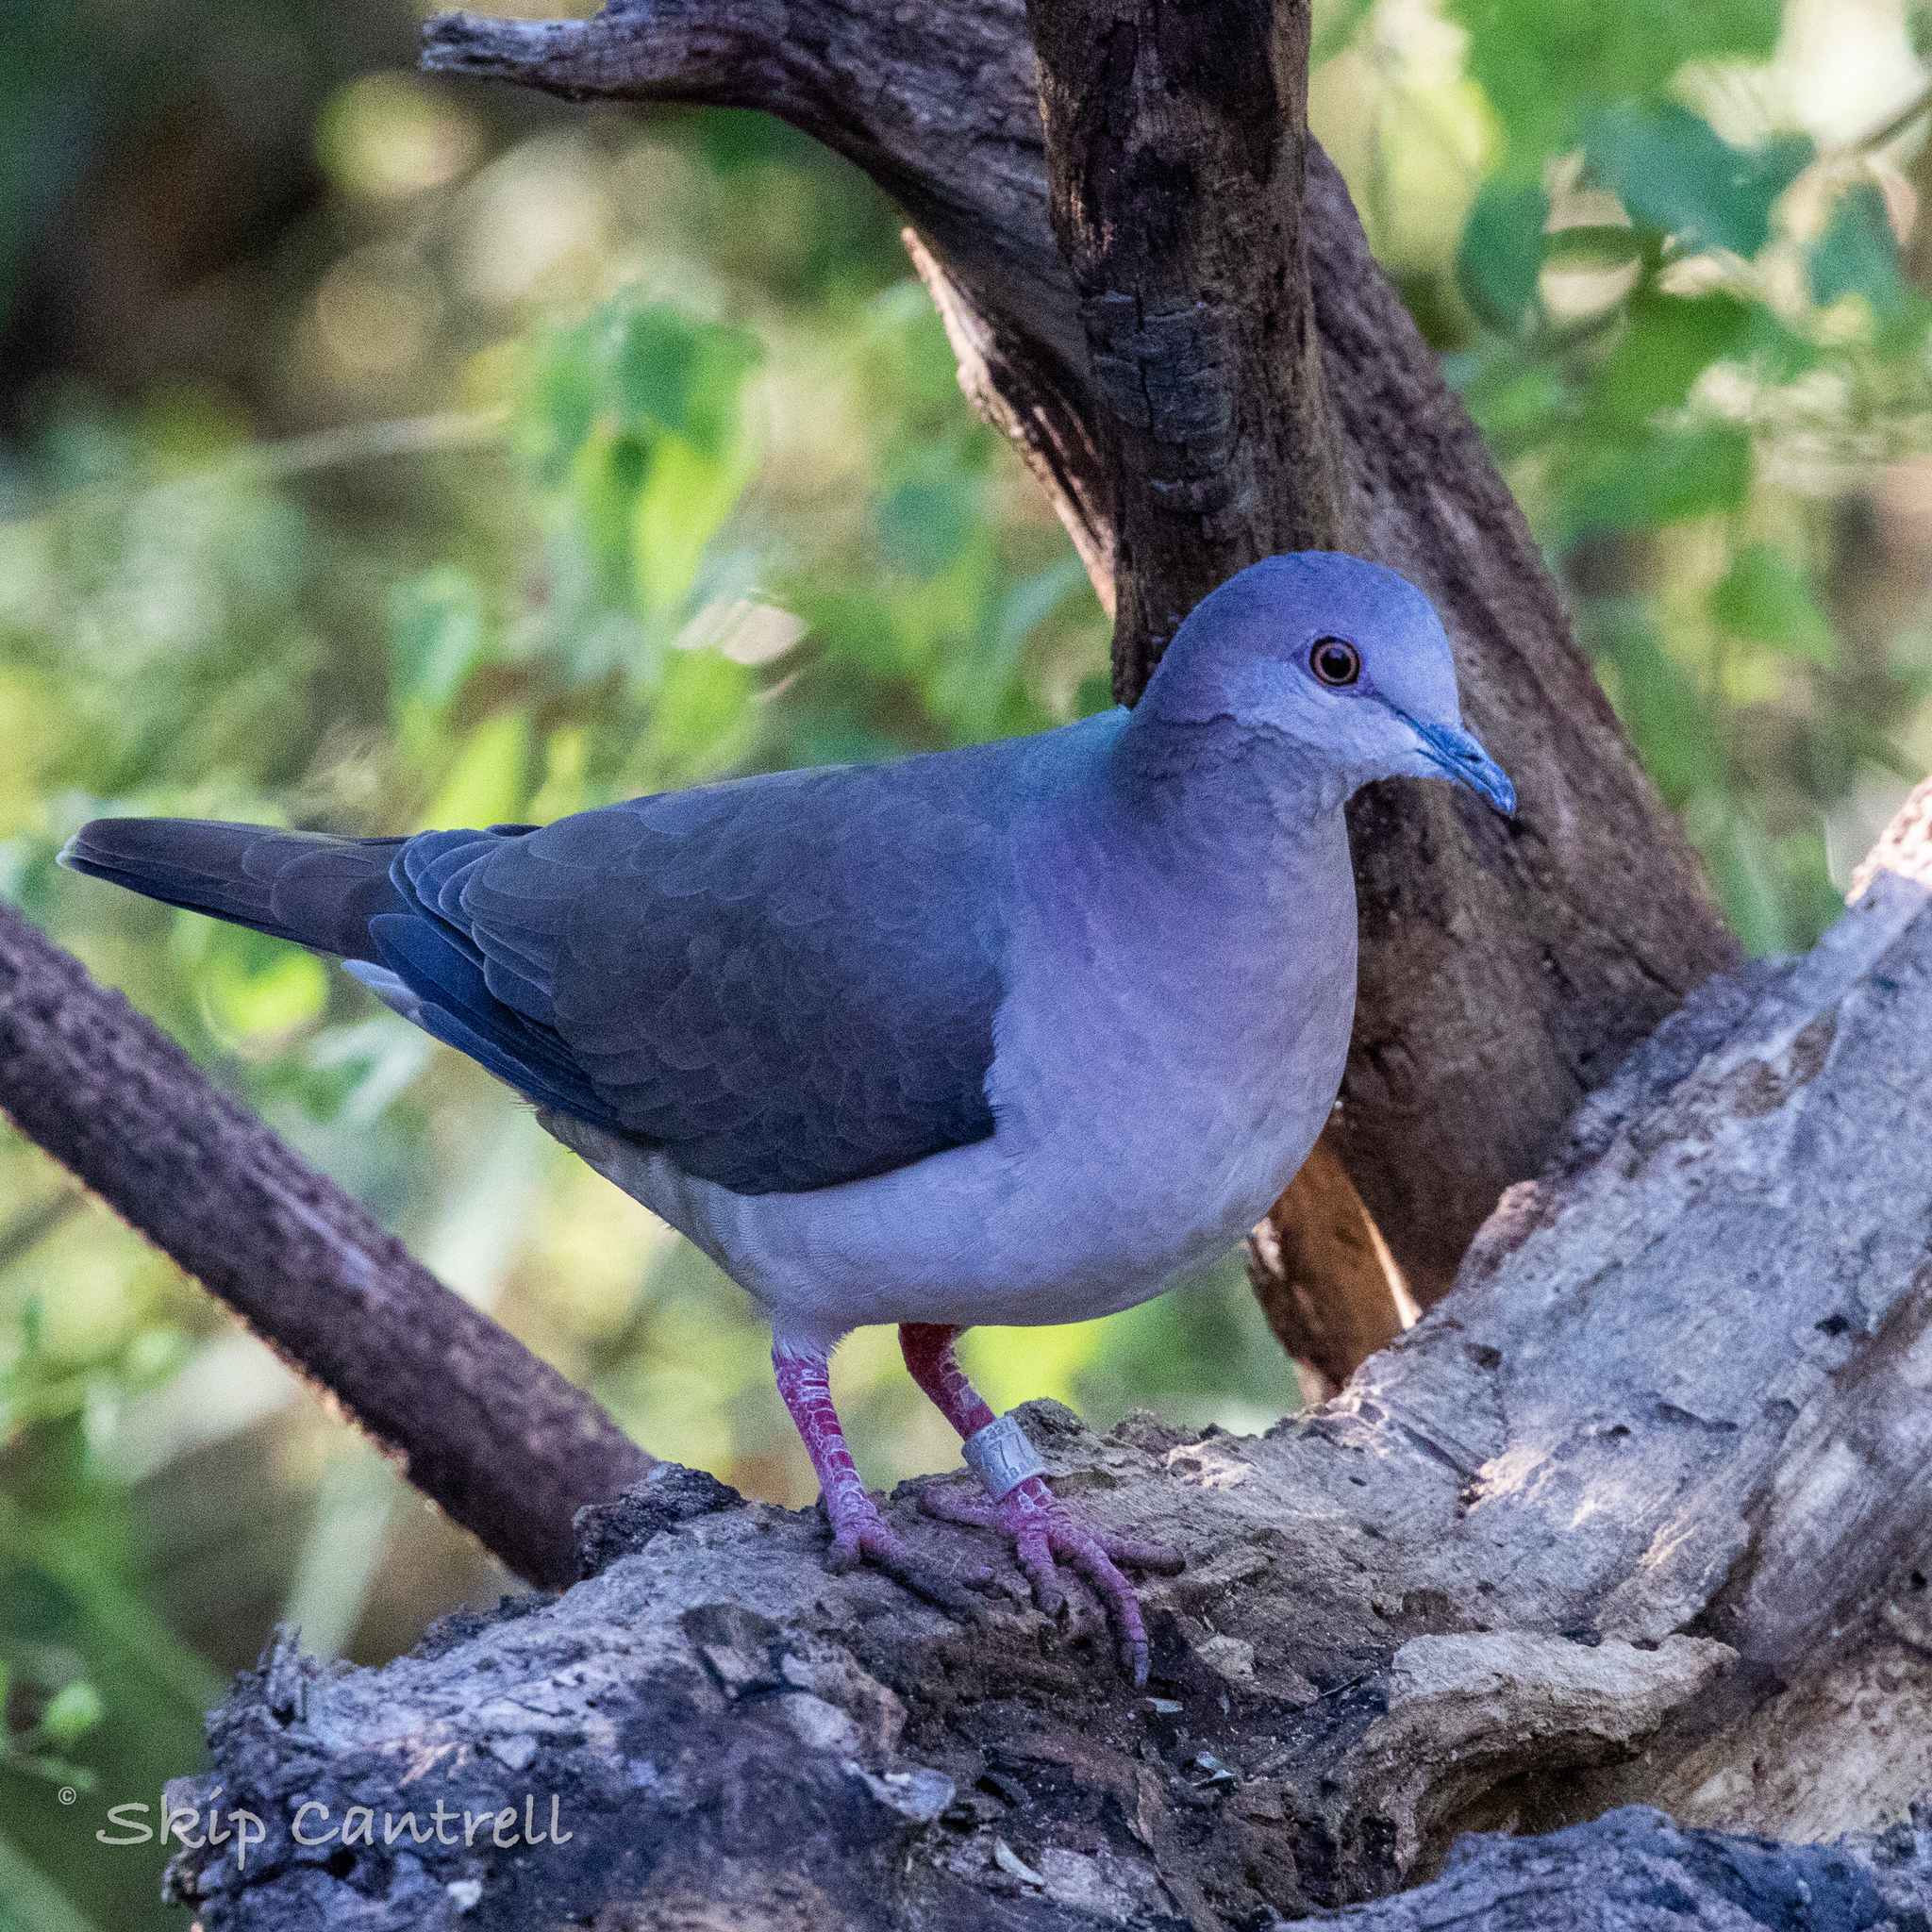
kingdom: Animalia
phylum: Chordata
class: Aves
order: Columbiformes
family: Columbidae
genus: Leptotila
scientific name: Leptotila verreauxi
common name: White-tipped dove
